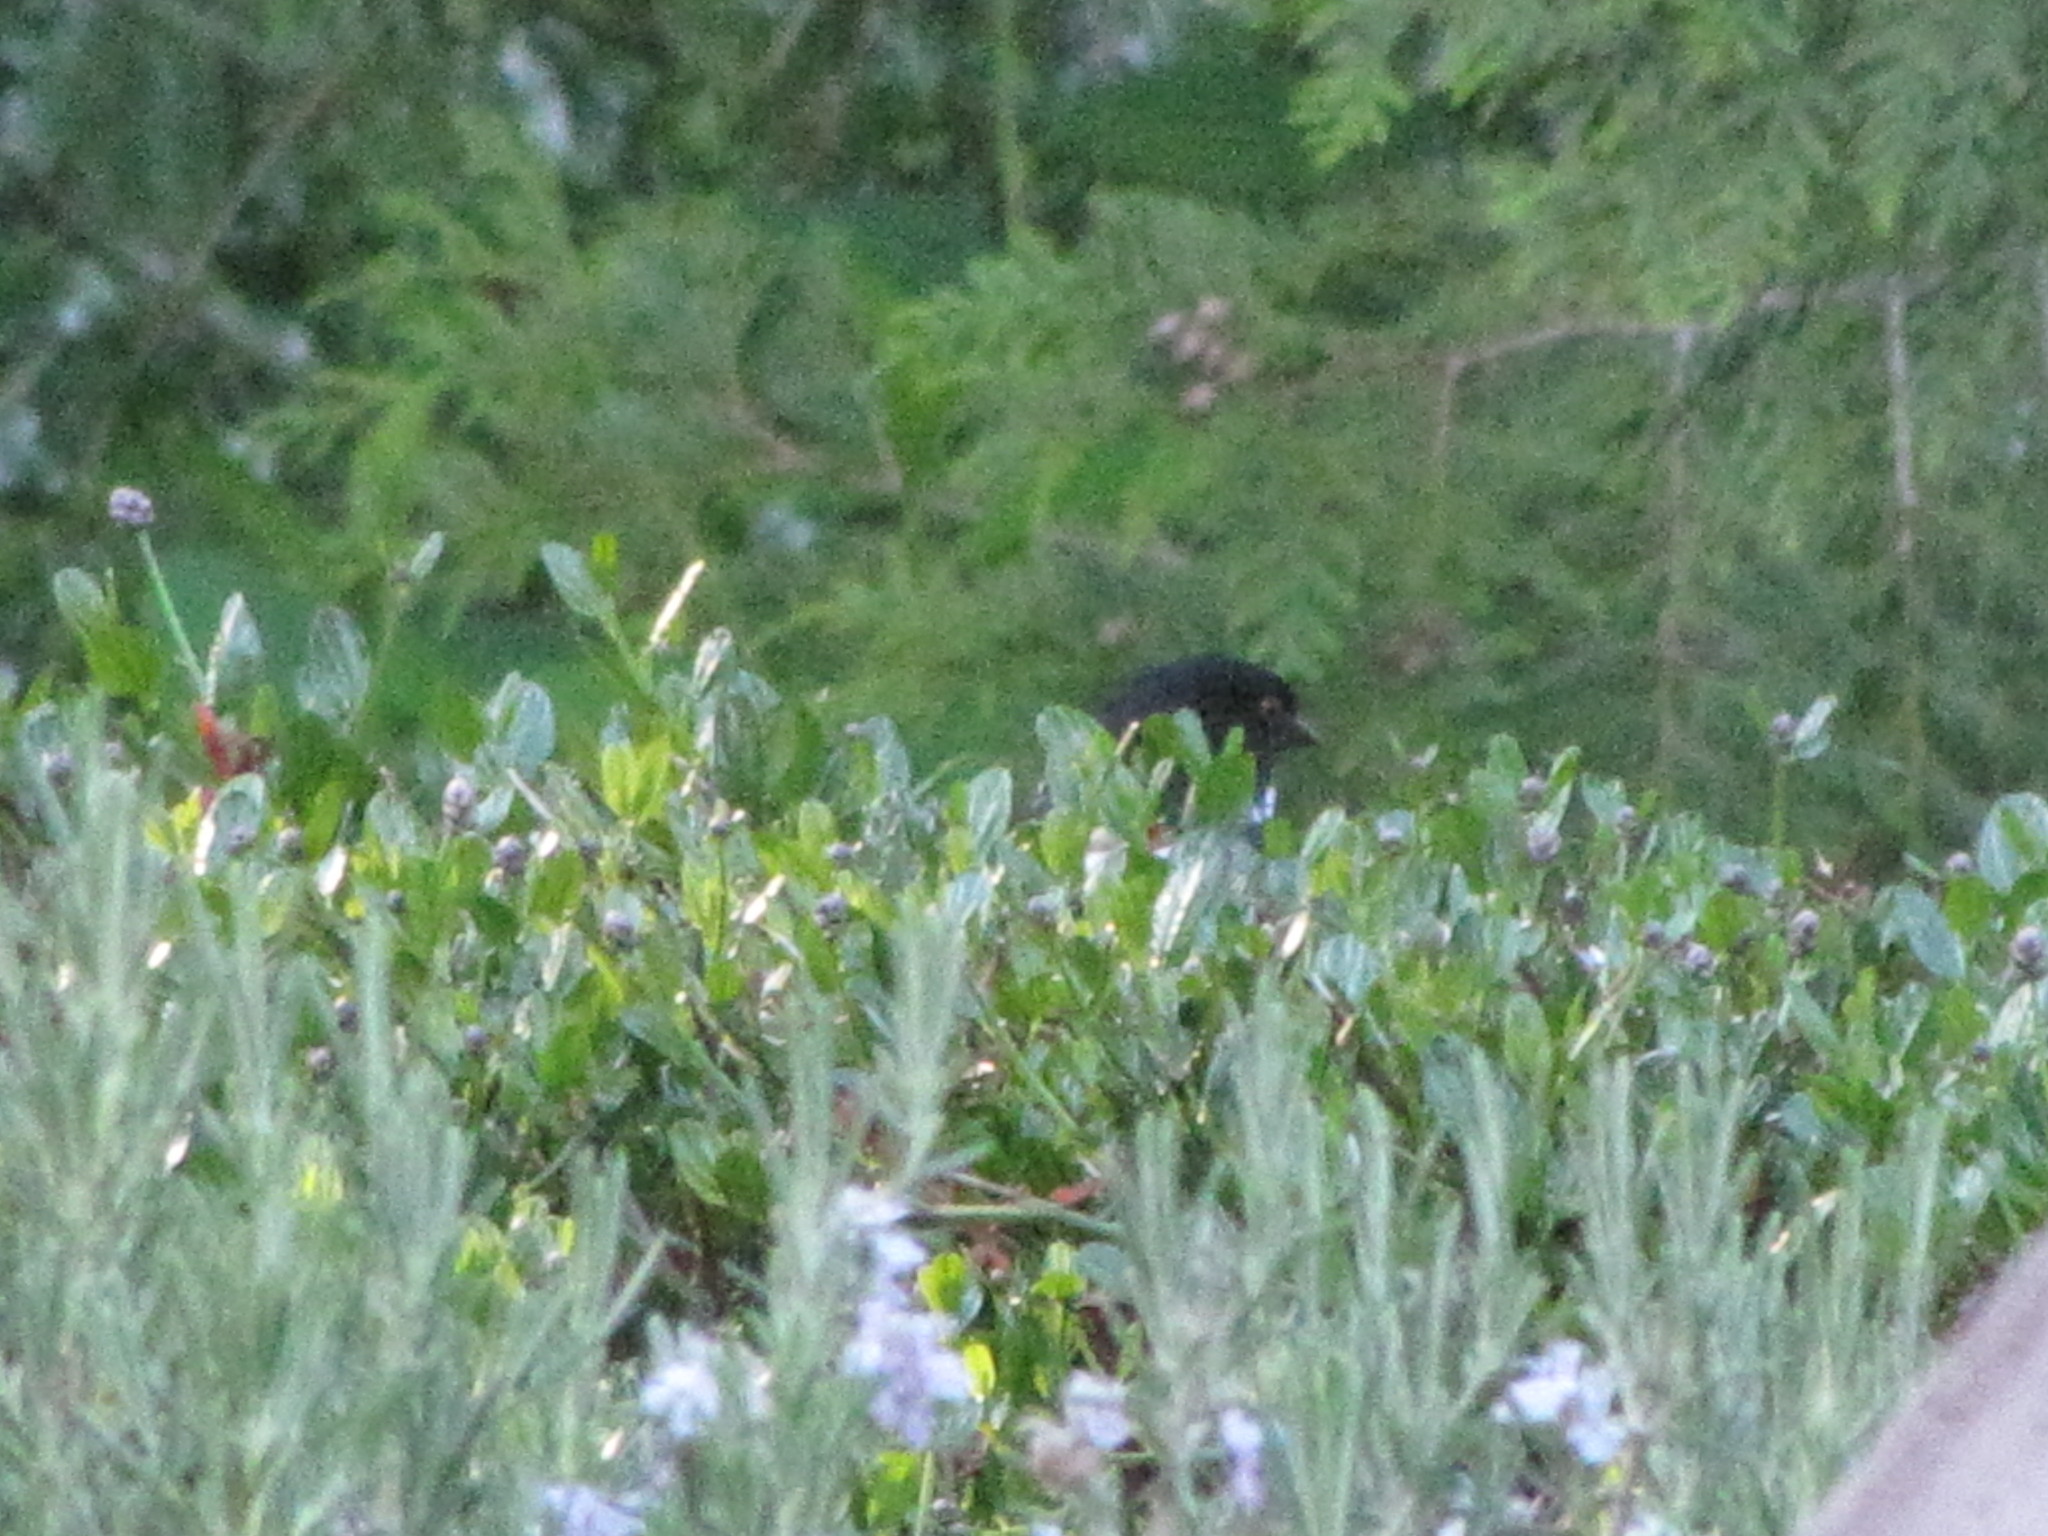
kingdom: Animalia
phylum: Chordata
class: Aves
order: Passeriformes
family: Passerellidae
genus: Pipilo
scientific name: Pipilo maculatus
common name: Spotted towhee
